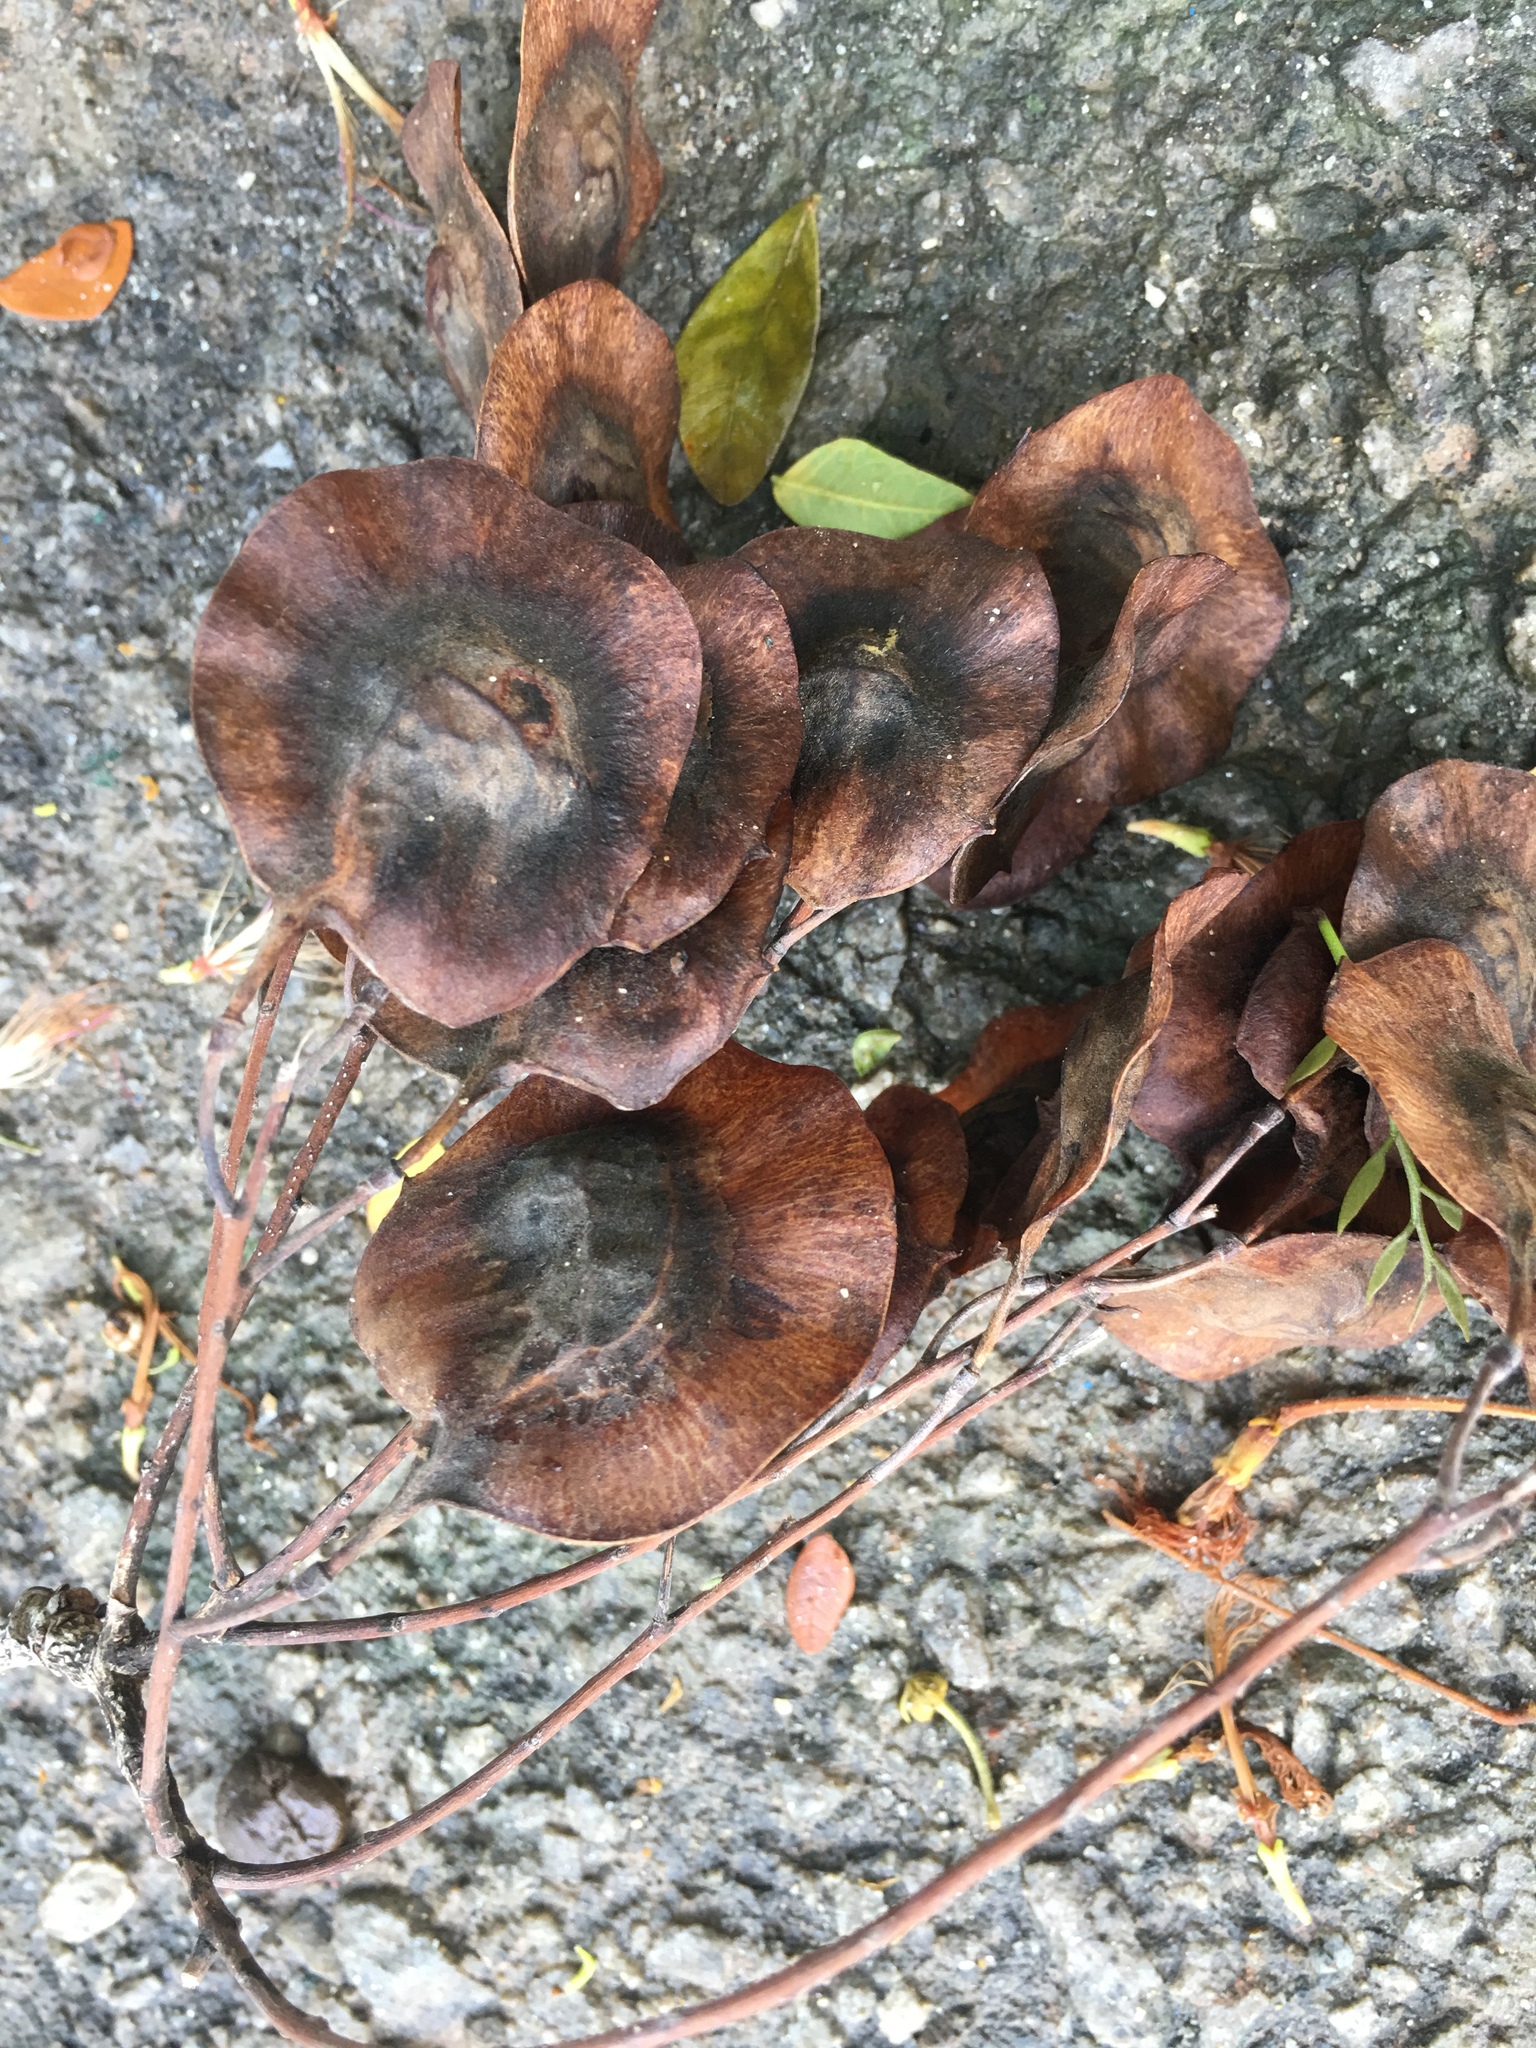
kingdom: Plantae
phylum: Tracheophyta
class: Magnoliopsida
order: Fabales
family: Fabaceae
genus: Pterocarpus
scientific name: Pterocarpus indicus
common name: Burmese rosewood
